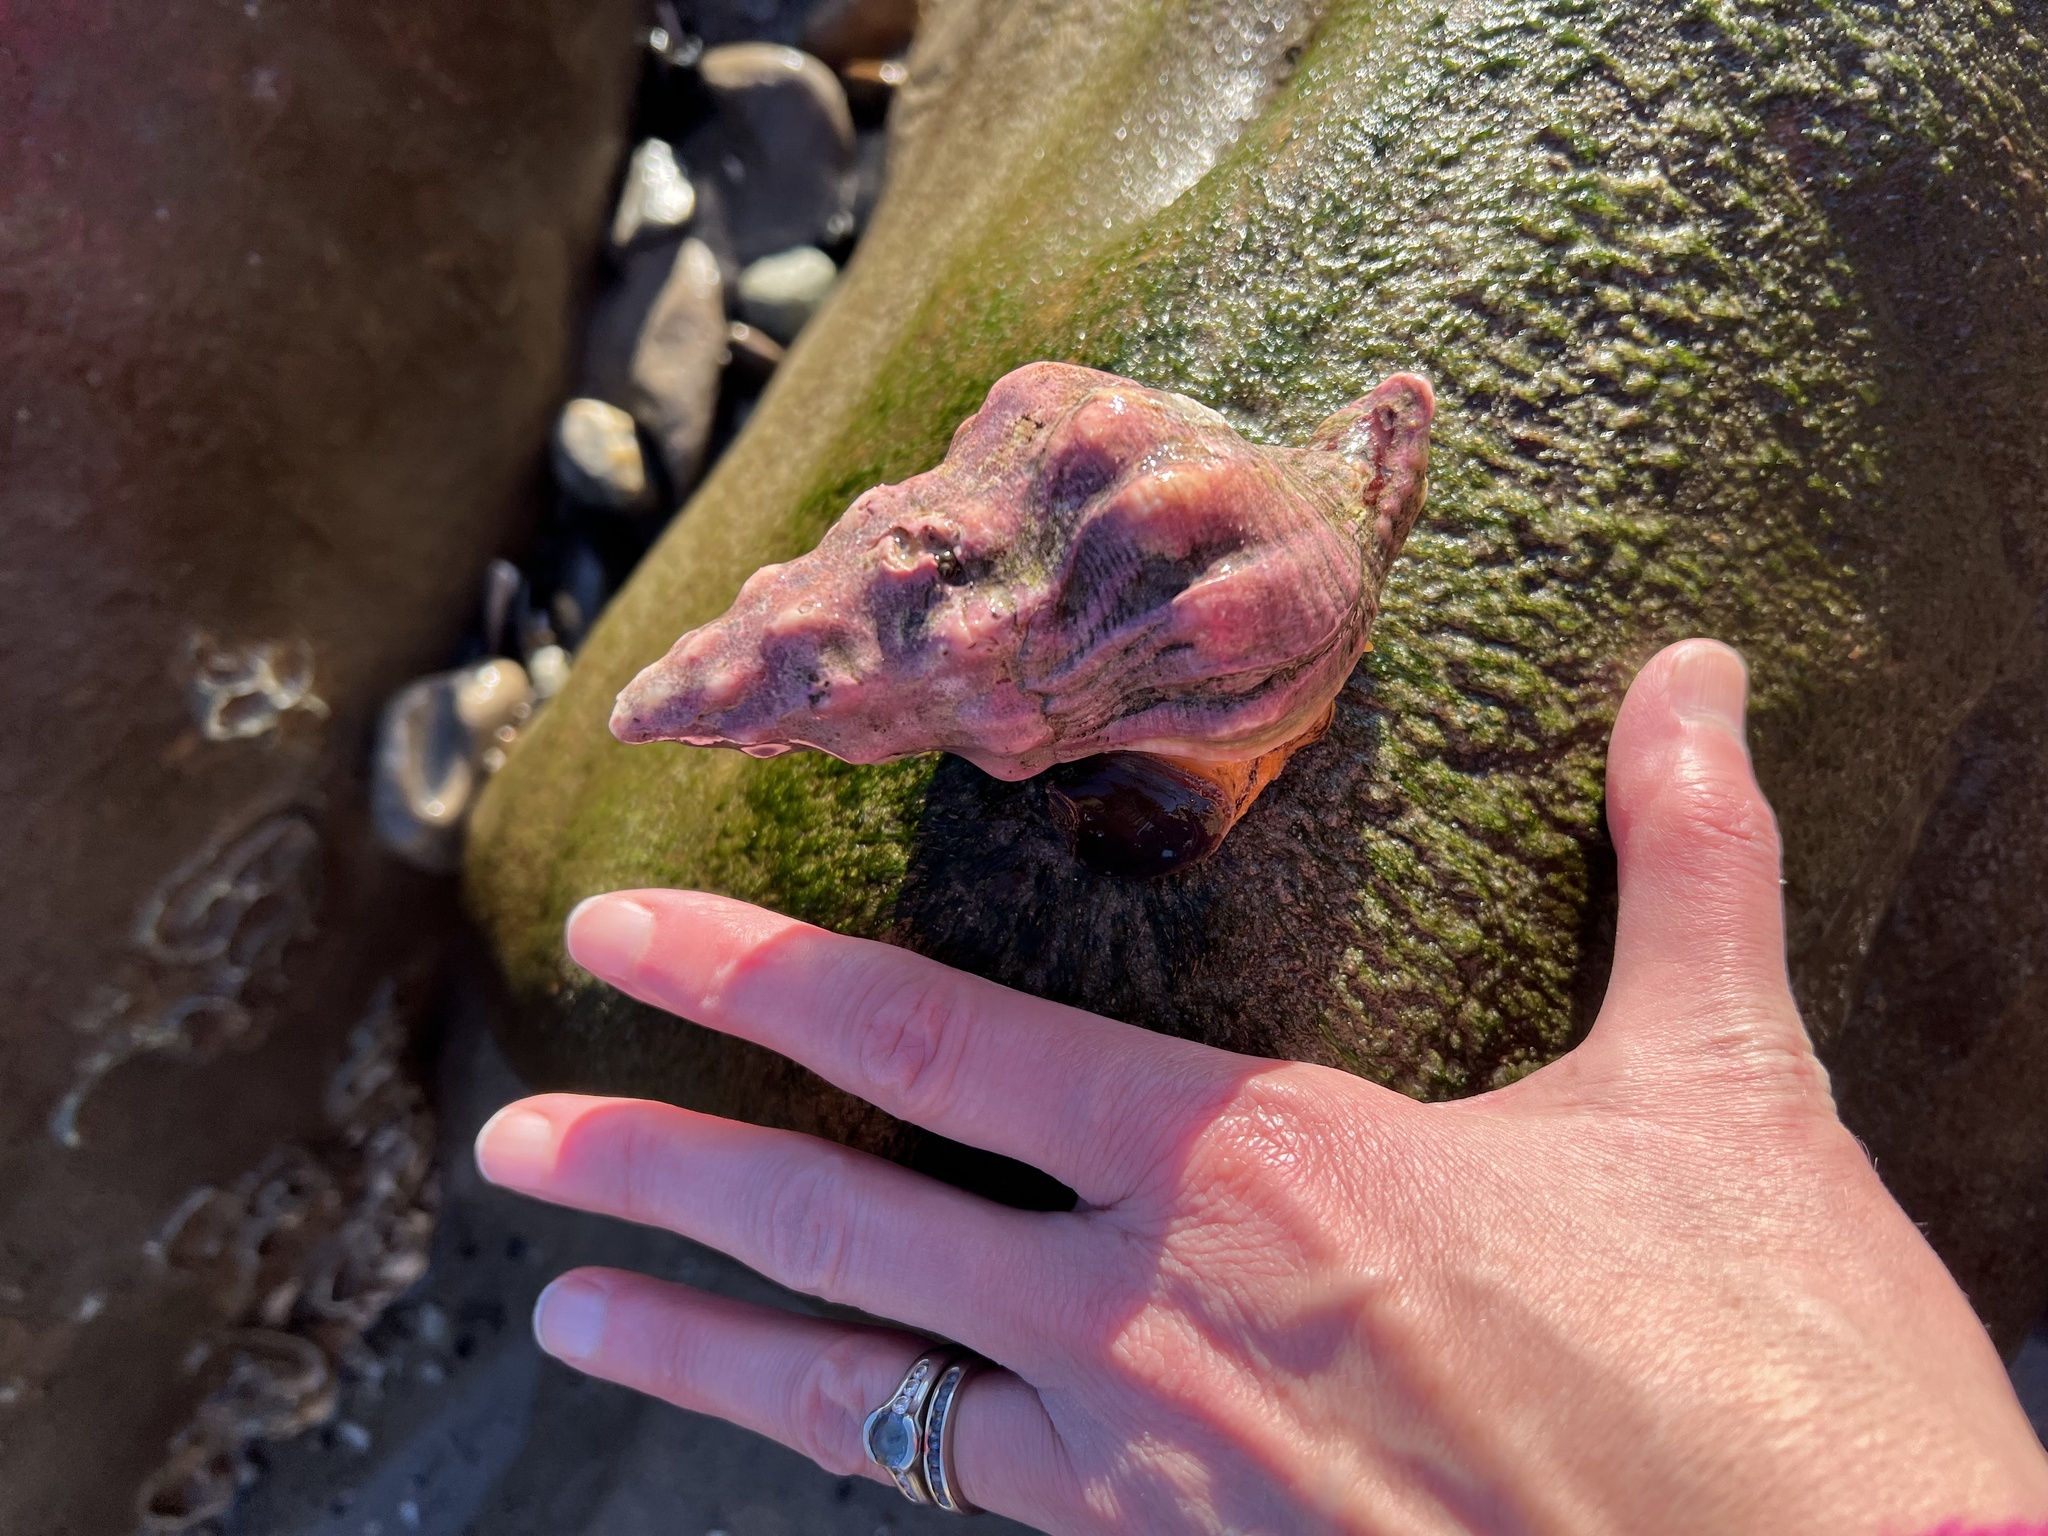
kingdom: Animalia
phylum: Mollusca
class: Gastropoda
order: Neogastropoda
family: Austrosiphonidae
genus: Kelletia
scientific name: Kelletia kelletii
